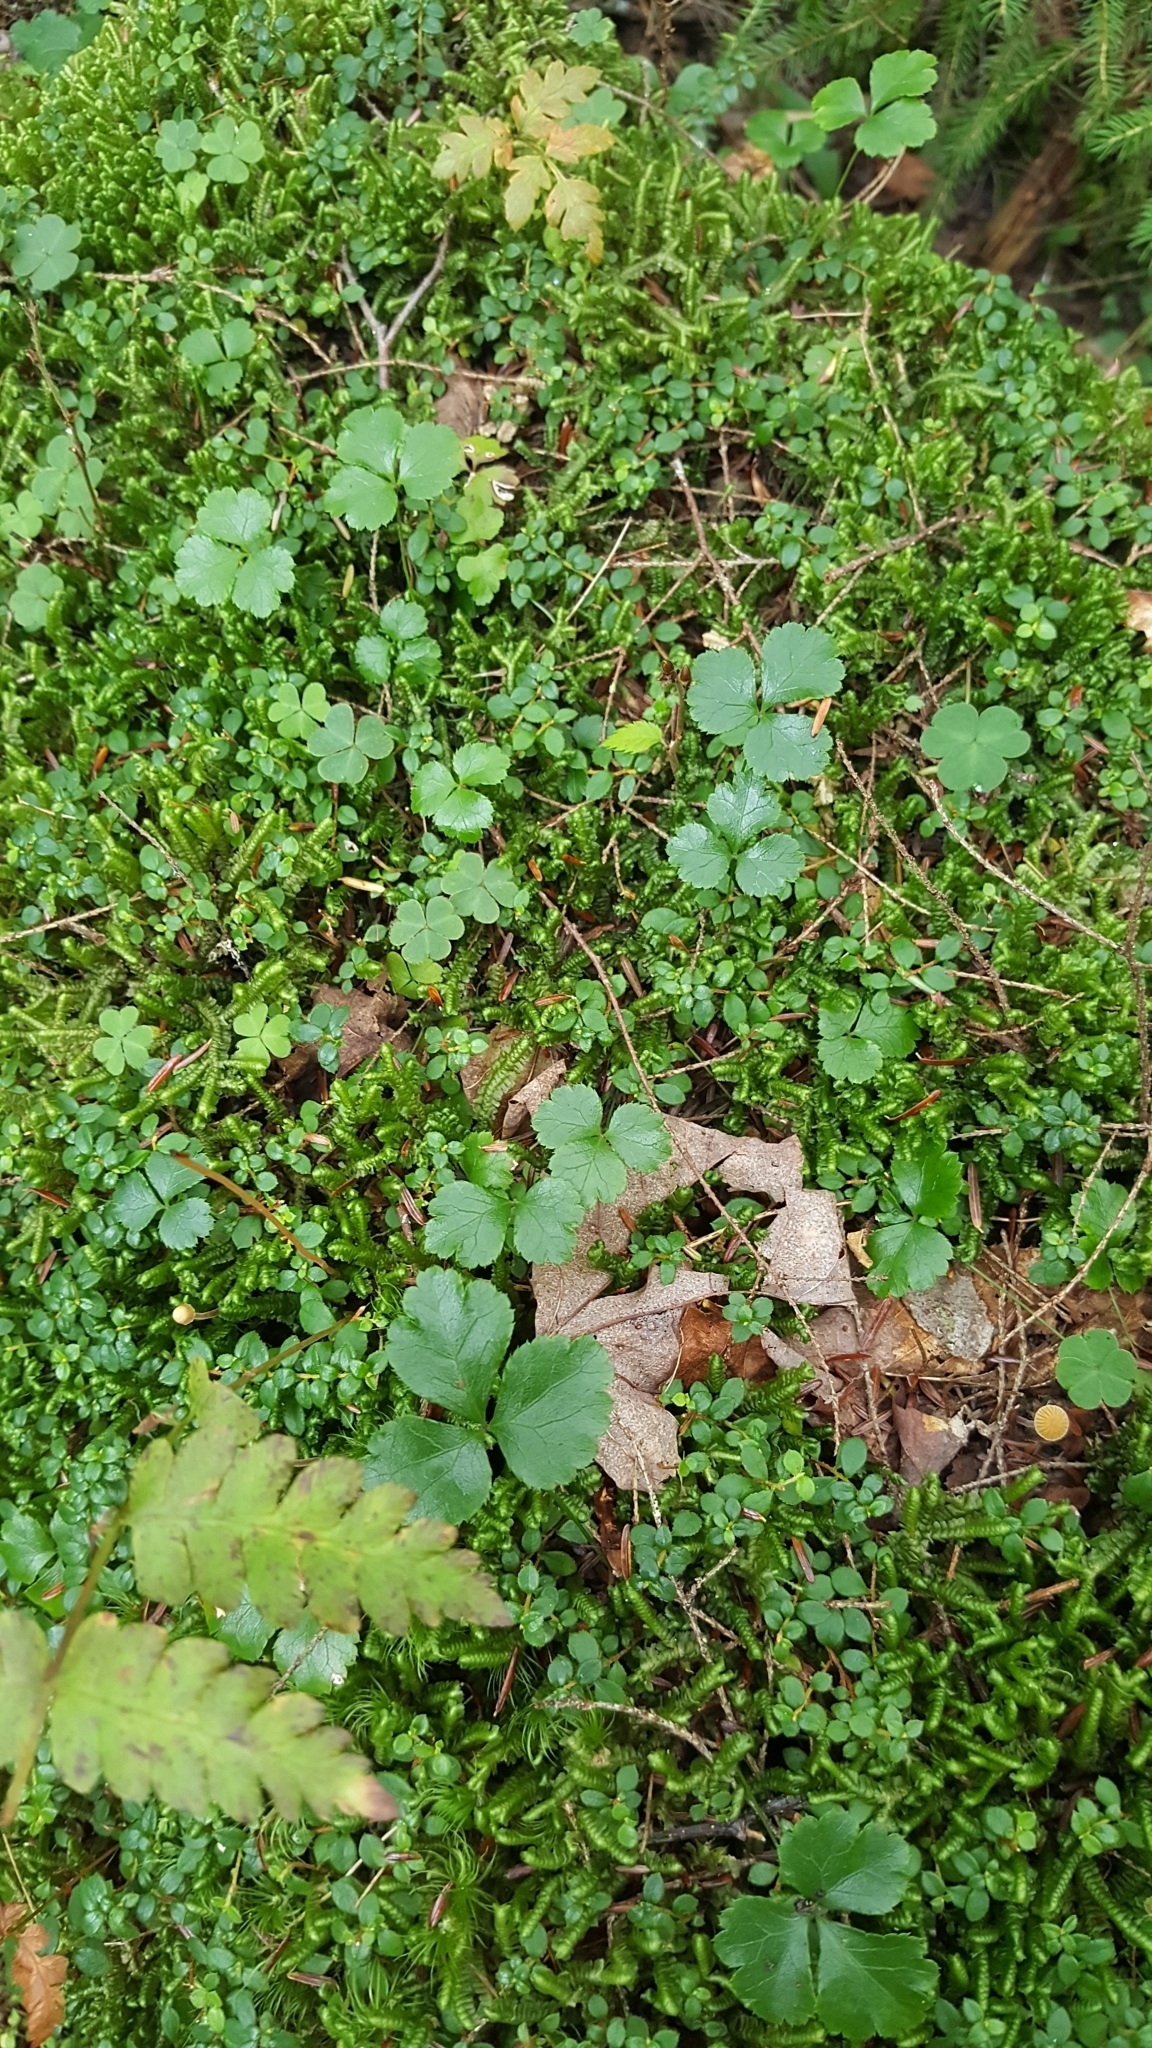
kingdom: Plantae
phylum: Tracheophyta
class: Magnoliopsida
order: Ranunculales
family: Ranunculaceae
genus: Coptis
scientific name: Coptis trifolia
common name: Canker-root
